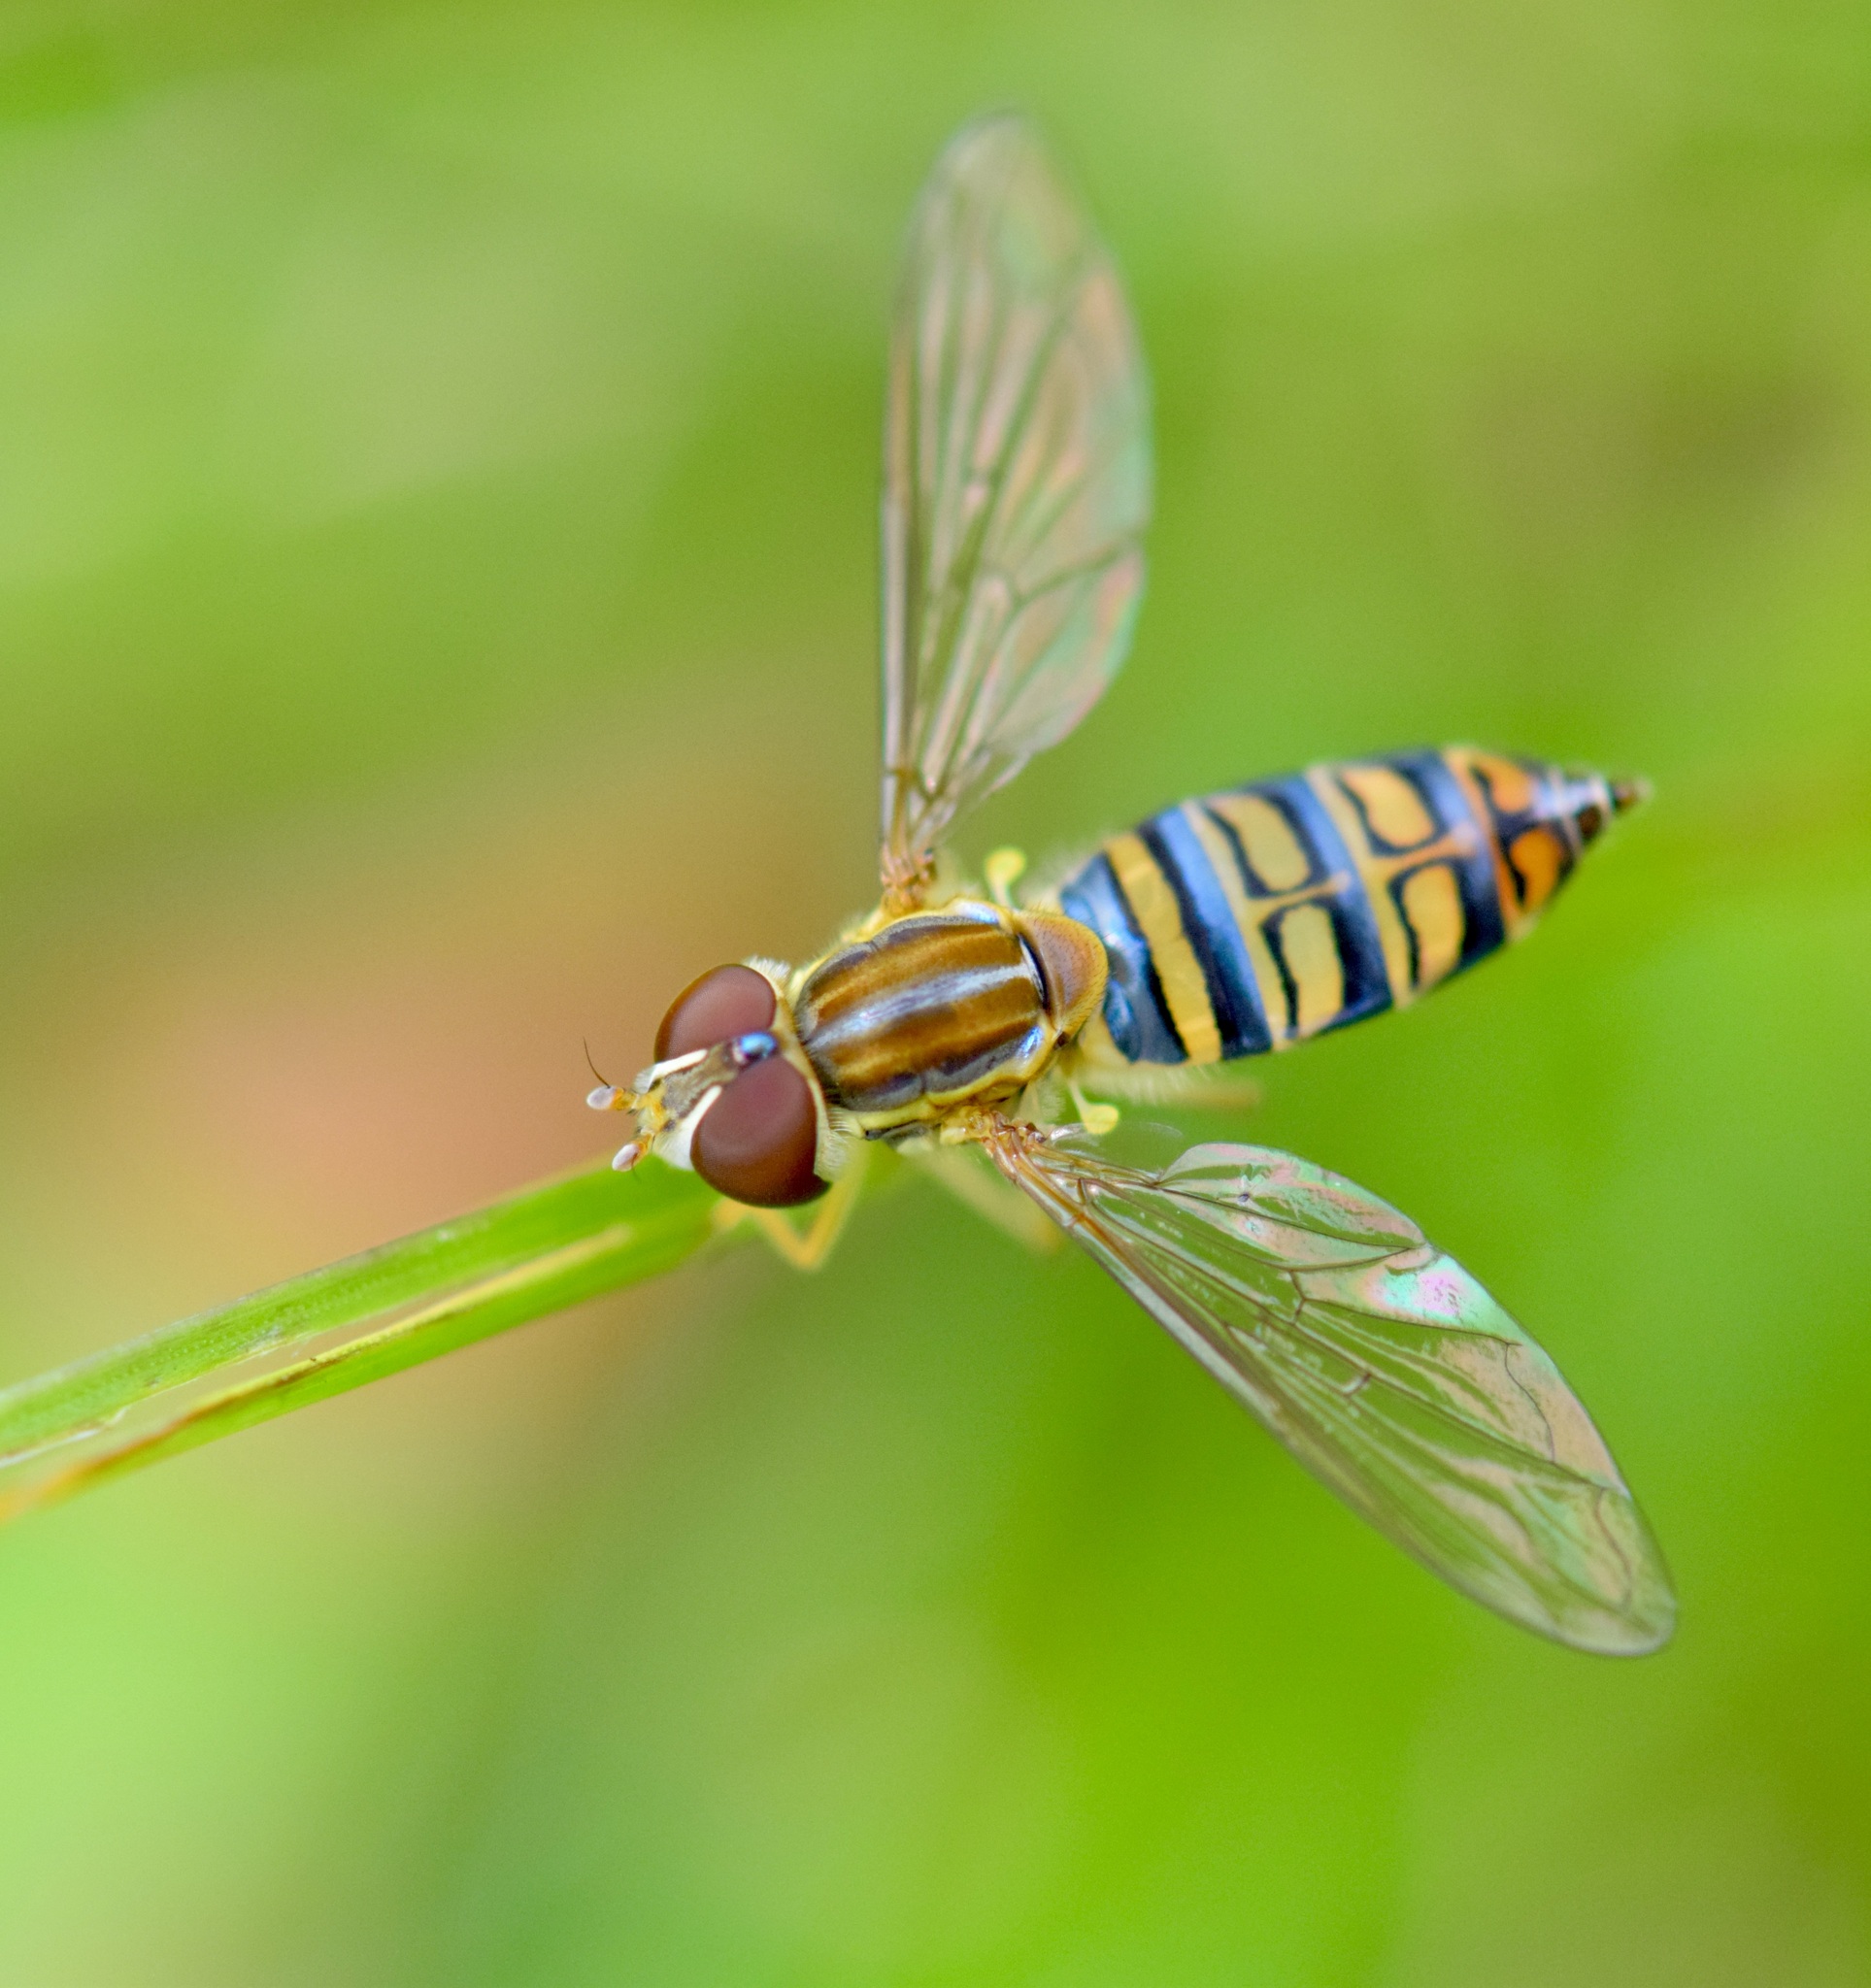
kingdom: Animalia
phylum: Arthropoda
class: Insecta
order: Diptera
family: Syrphidae
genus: Toxomerus
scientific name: Toxomerus politus
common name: Maize calligrapher
